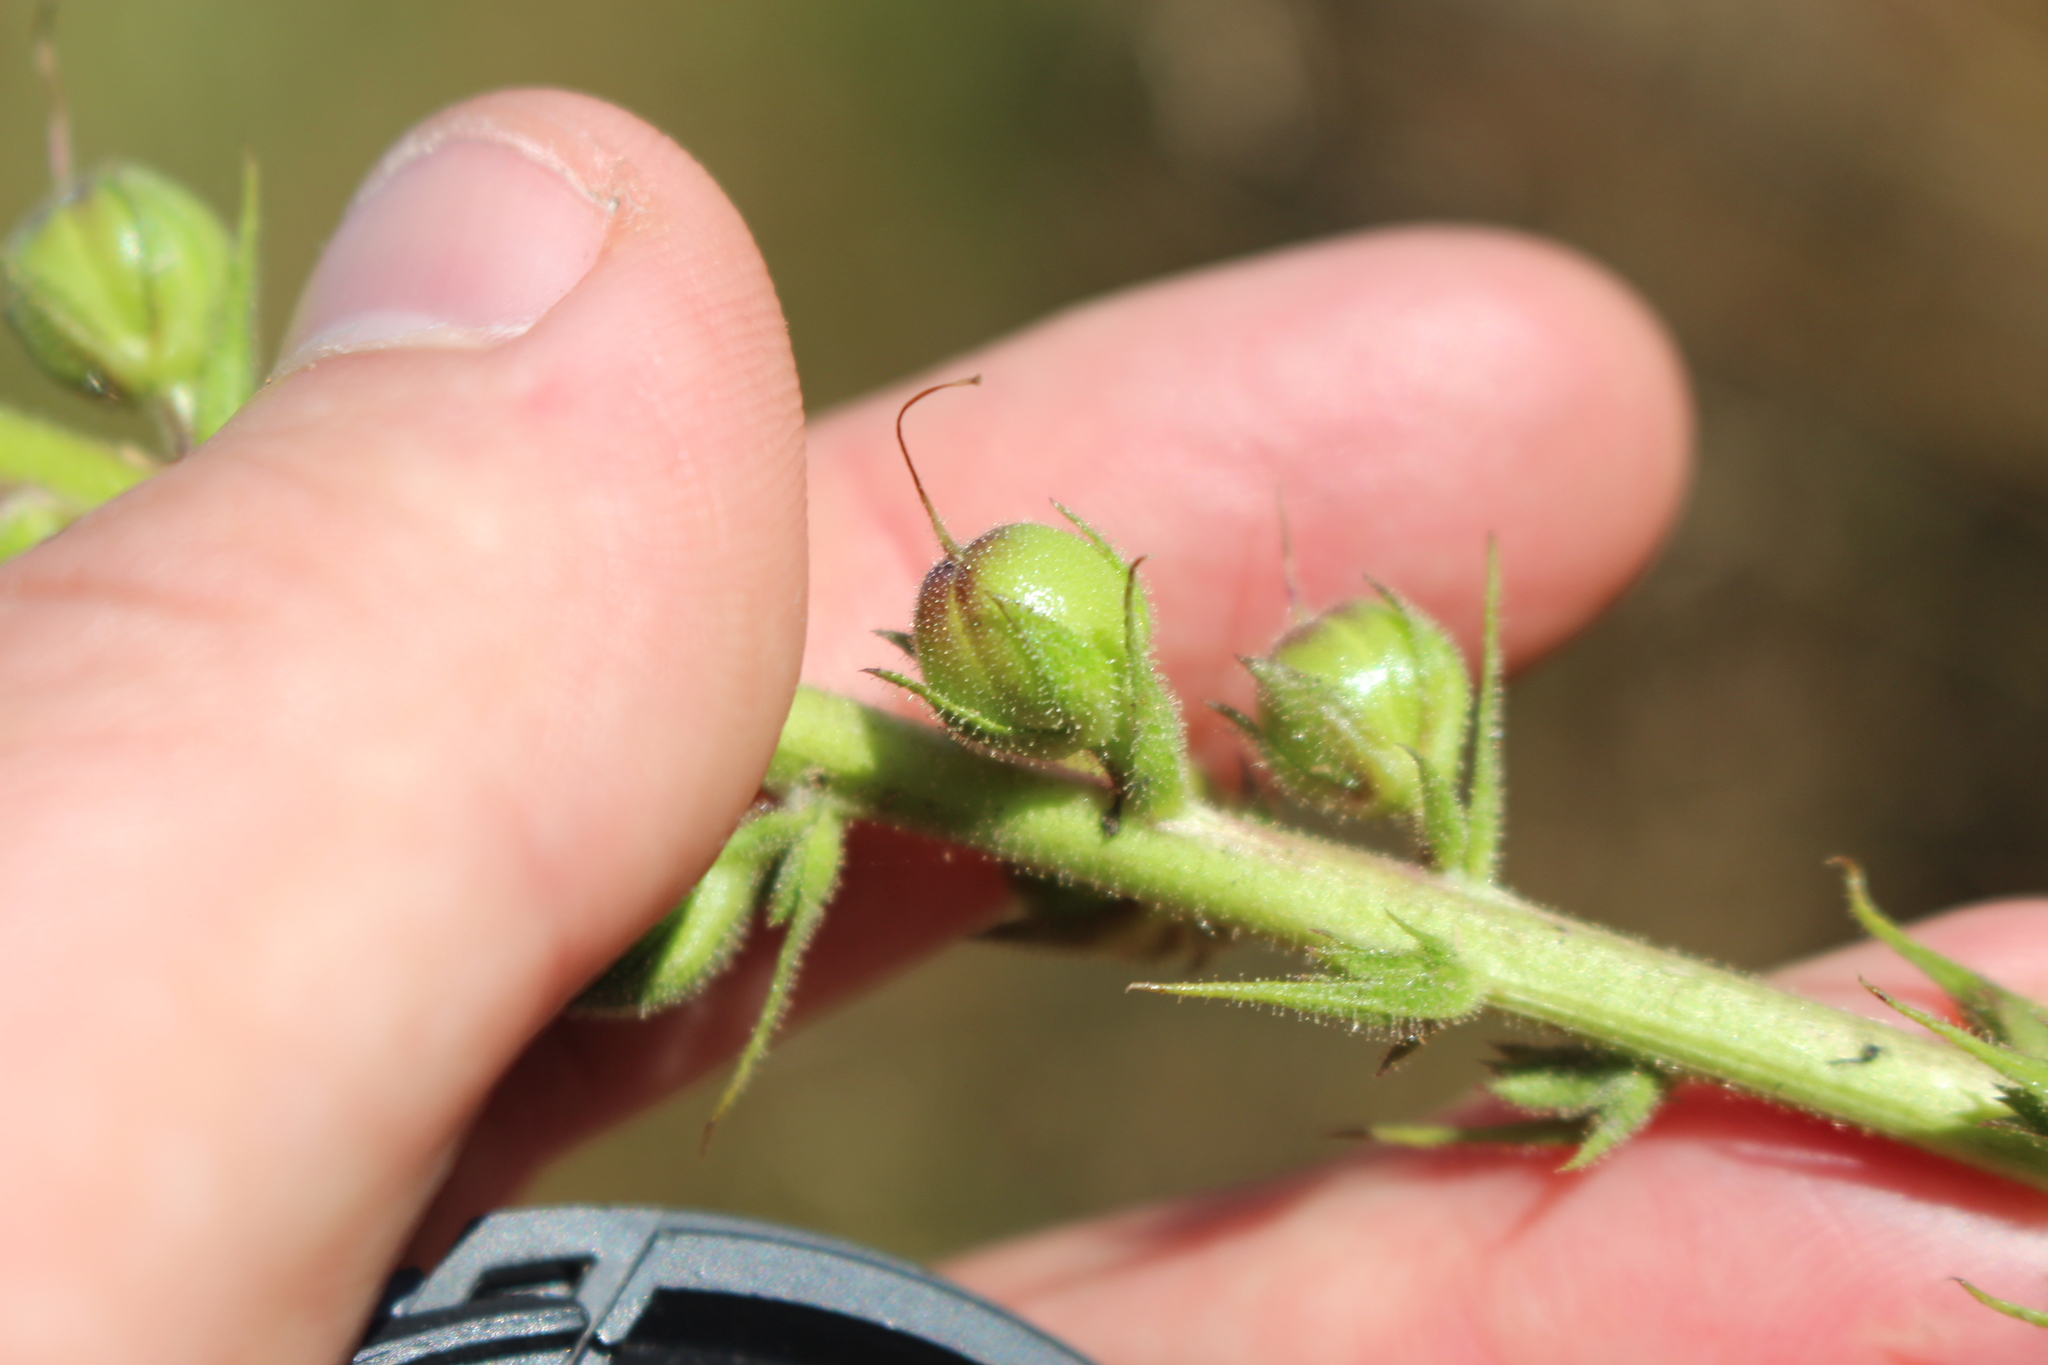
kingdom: Plantae
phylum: Tracheophyta
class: Magnoliopsida
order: Lamiales
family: Scrophulariaceae
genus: Verbascum
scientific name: Verbascum virgatum
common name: Twiggy mullein
